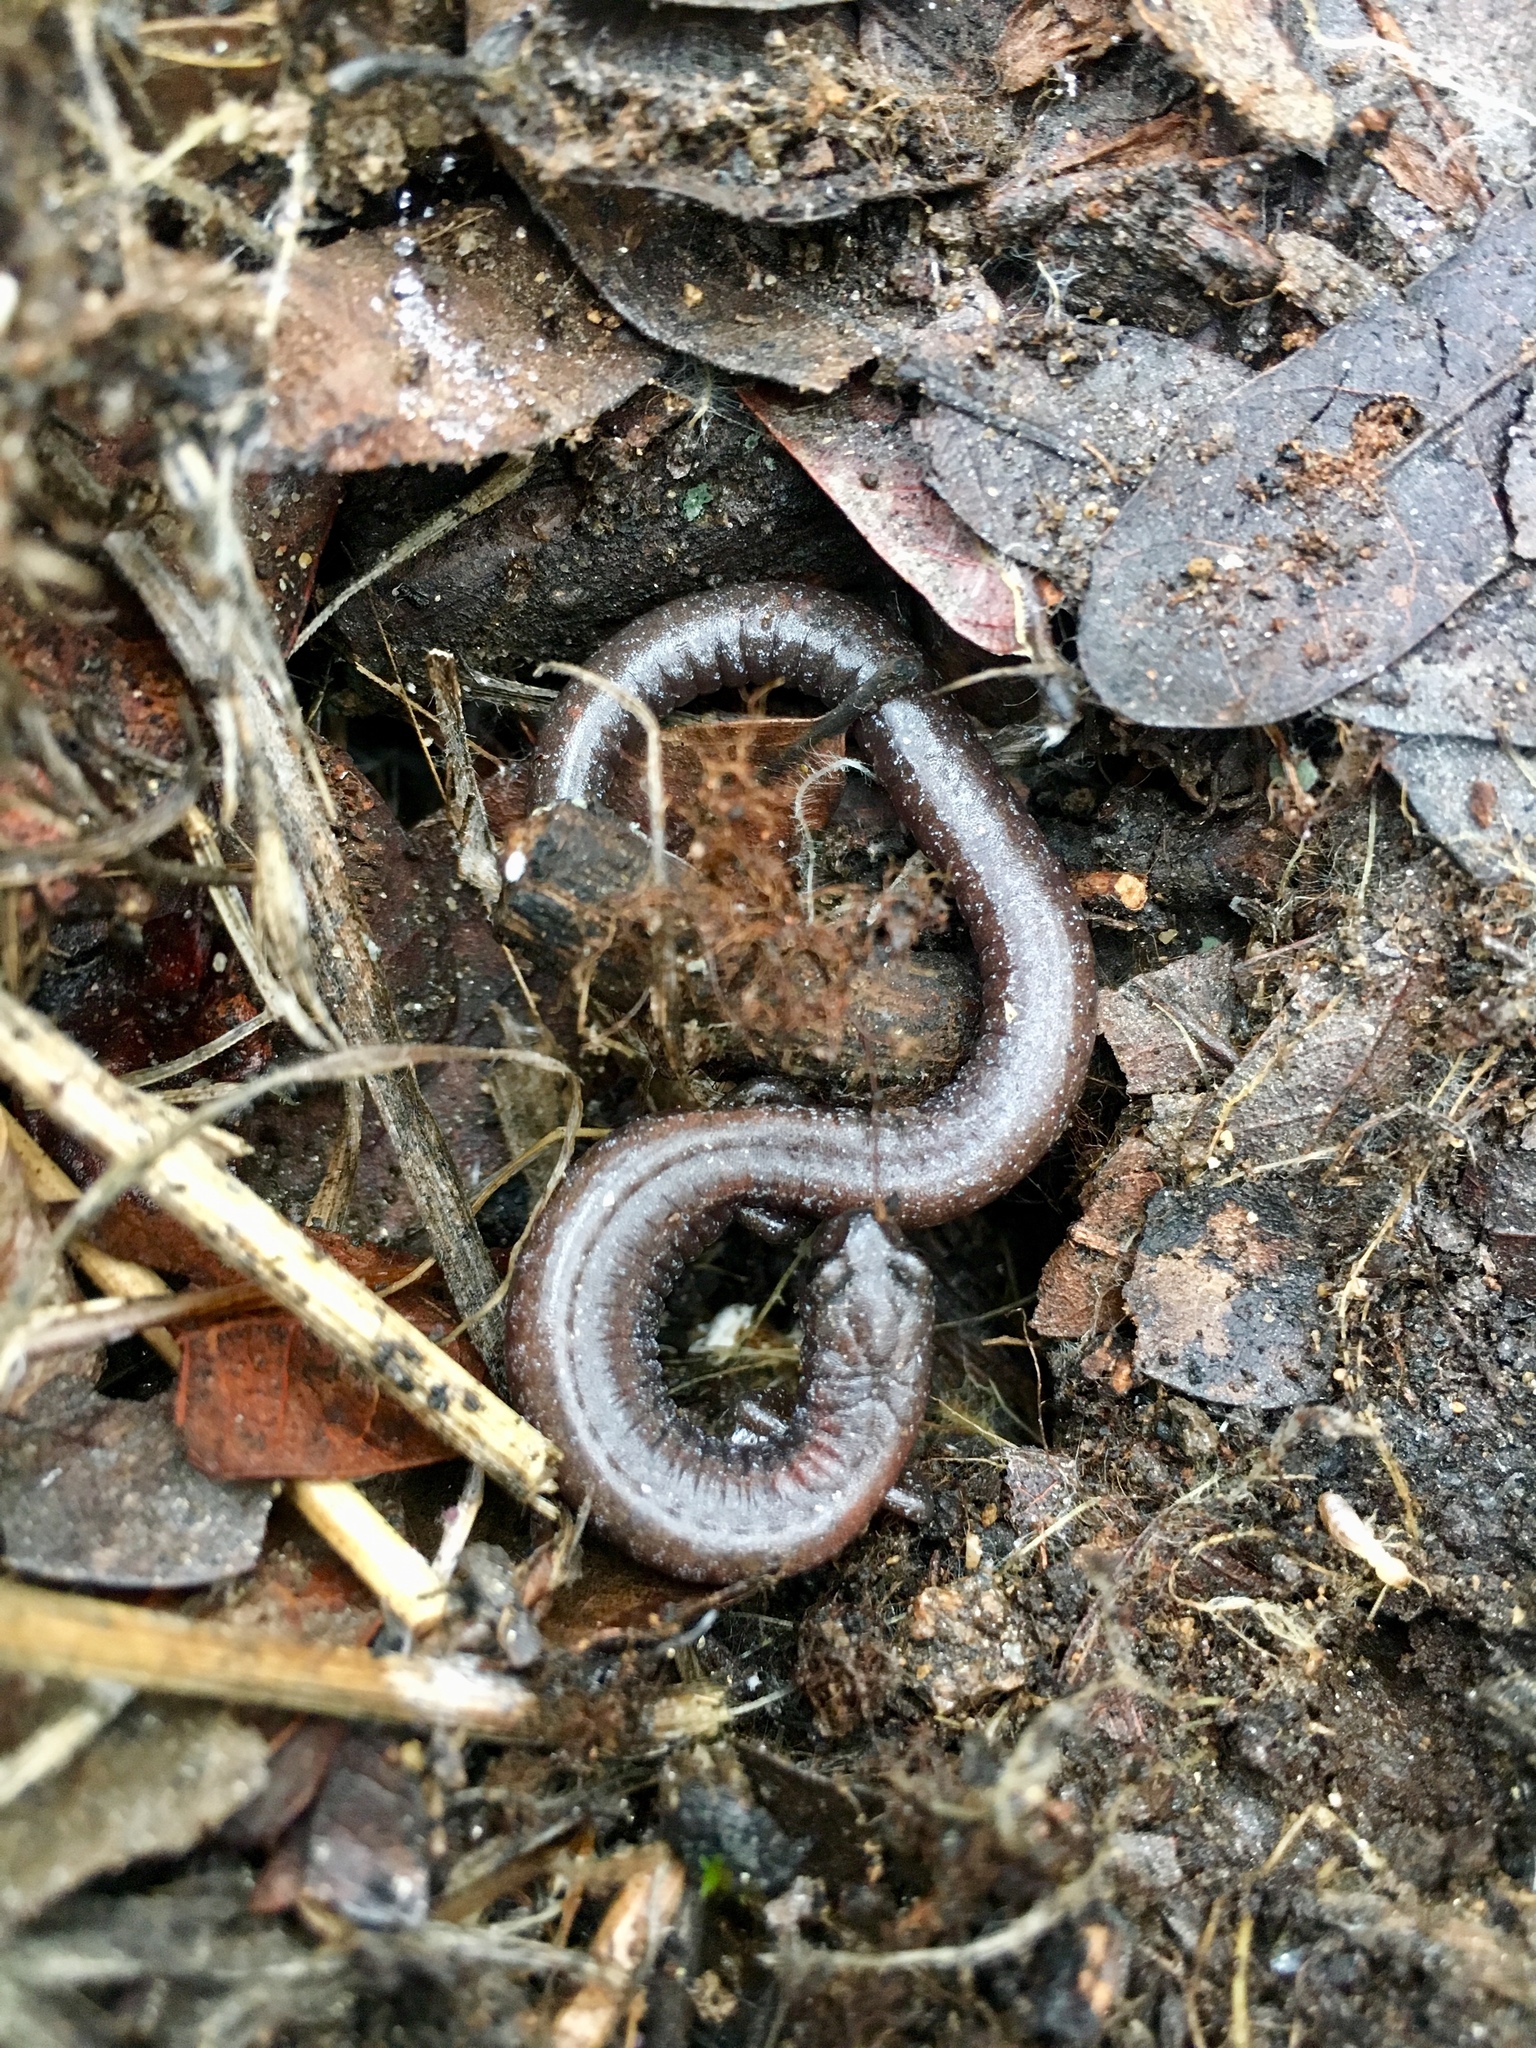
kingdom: Animalia
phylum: Chordata
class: Amphibia
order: Caudata
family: Plethodontidae
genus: Batrachoseps
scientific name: Batrachoseps major
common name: Garden slender salamander
